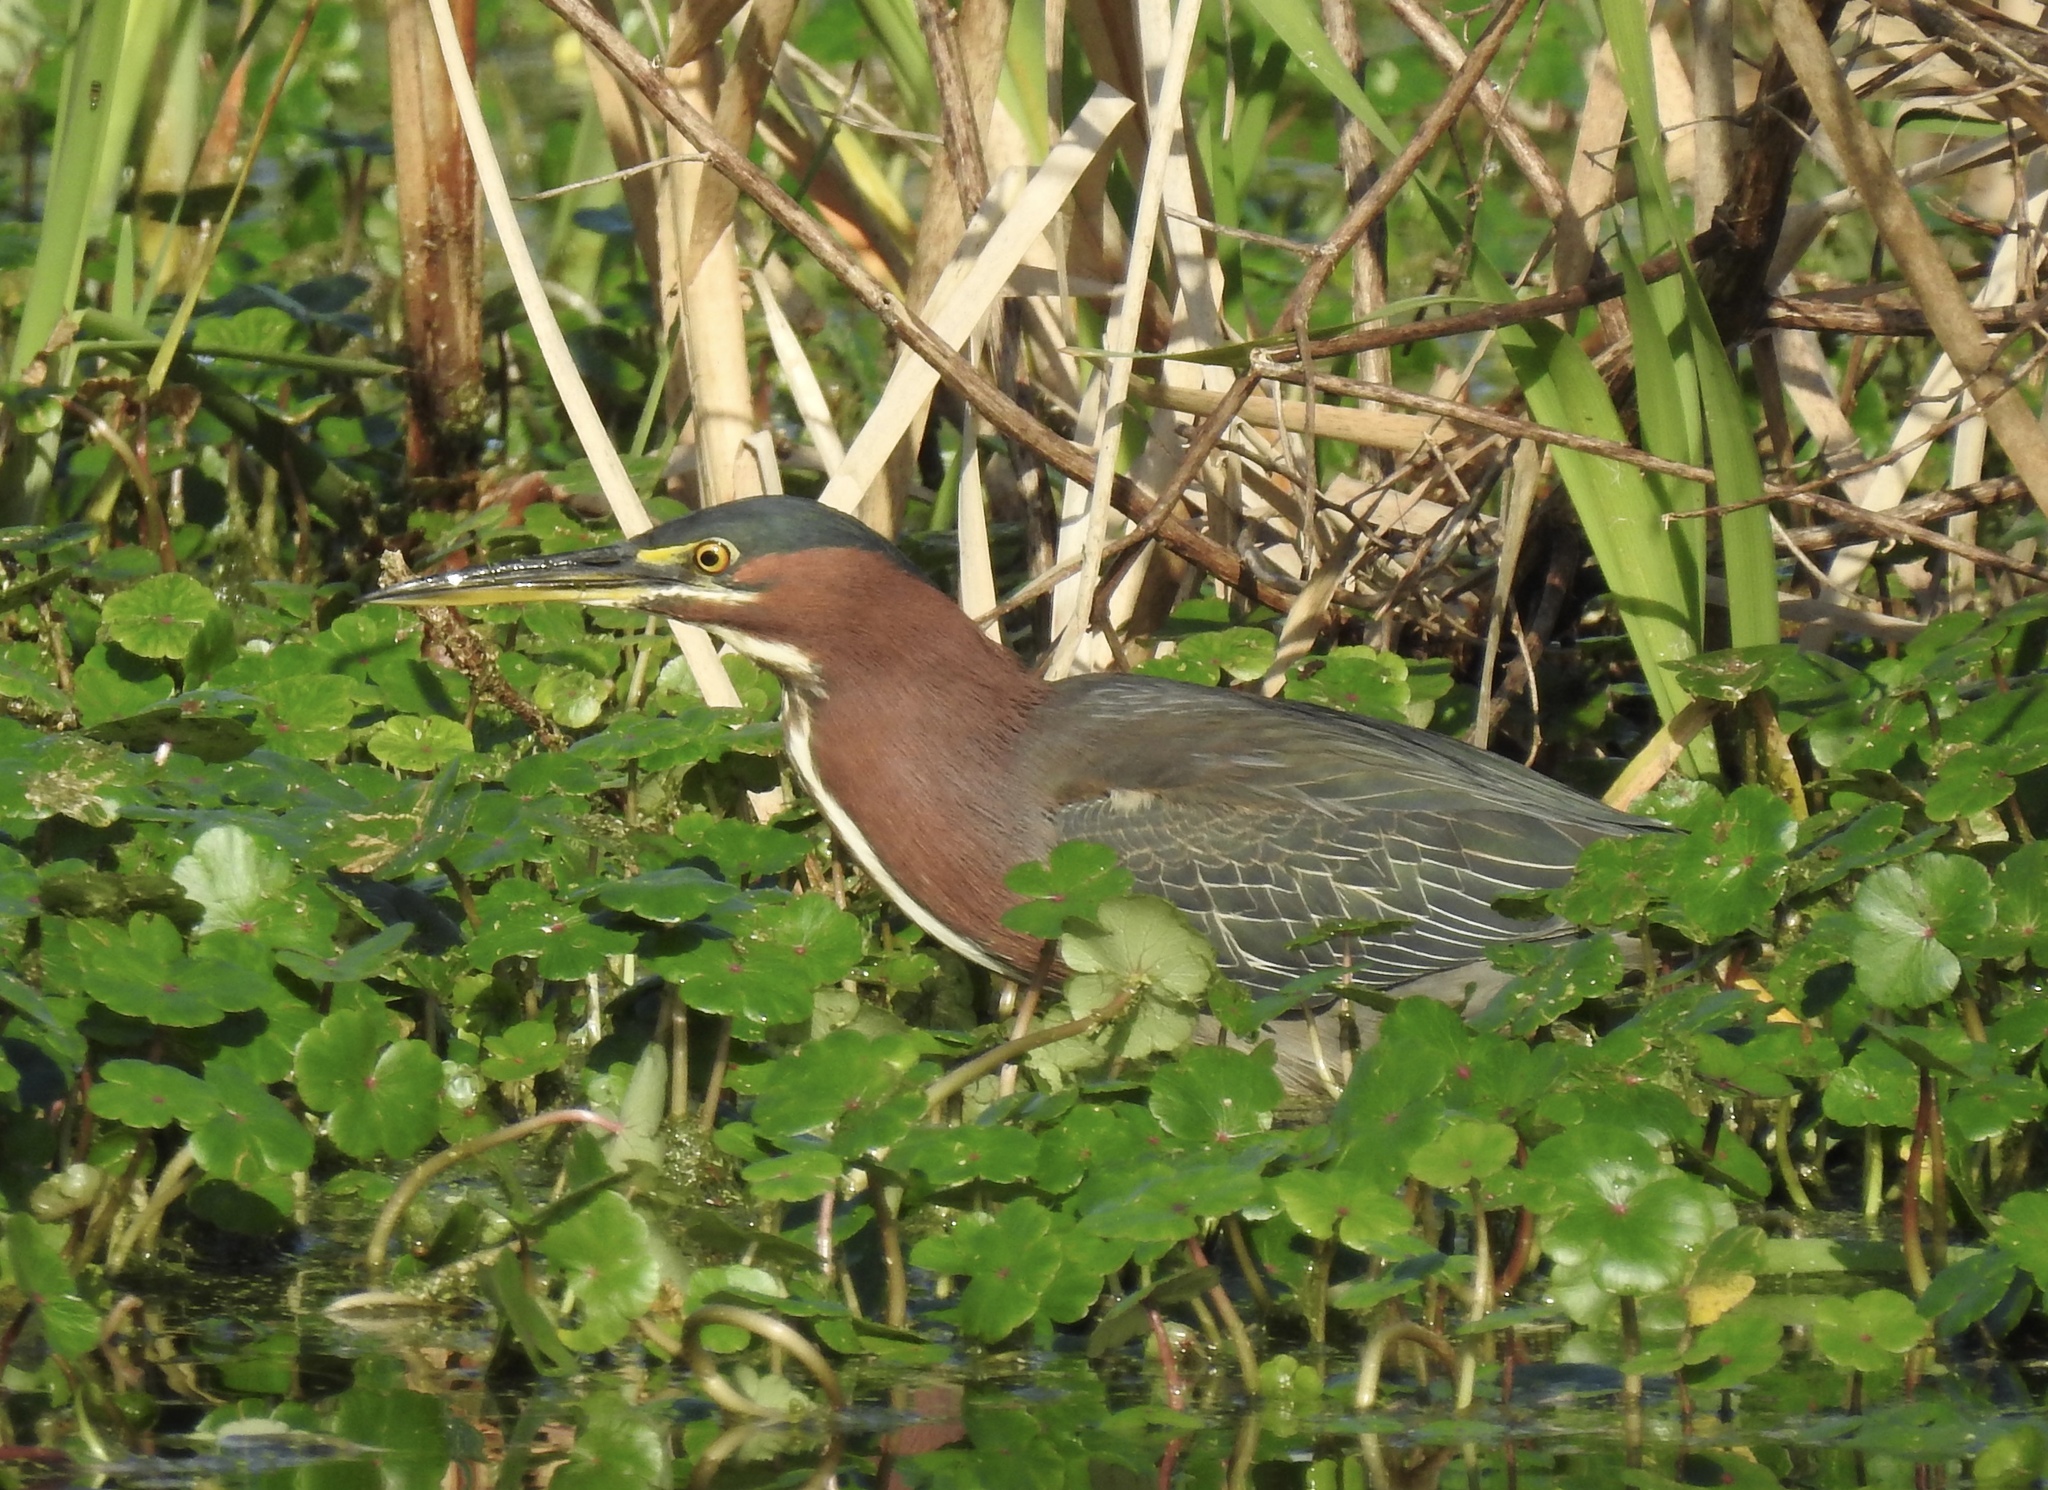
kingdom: Animalia
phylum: Chordata
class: Aves
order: Pelecaniformes
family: Ardeidae
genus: Butorides
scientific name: Butorides virescens
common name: Green heron
